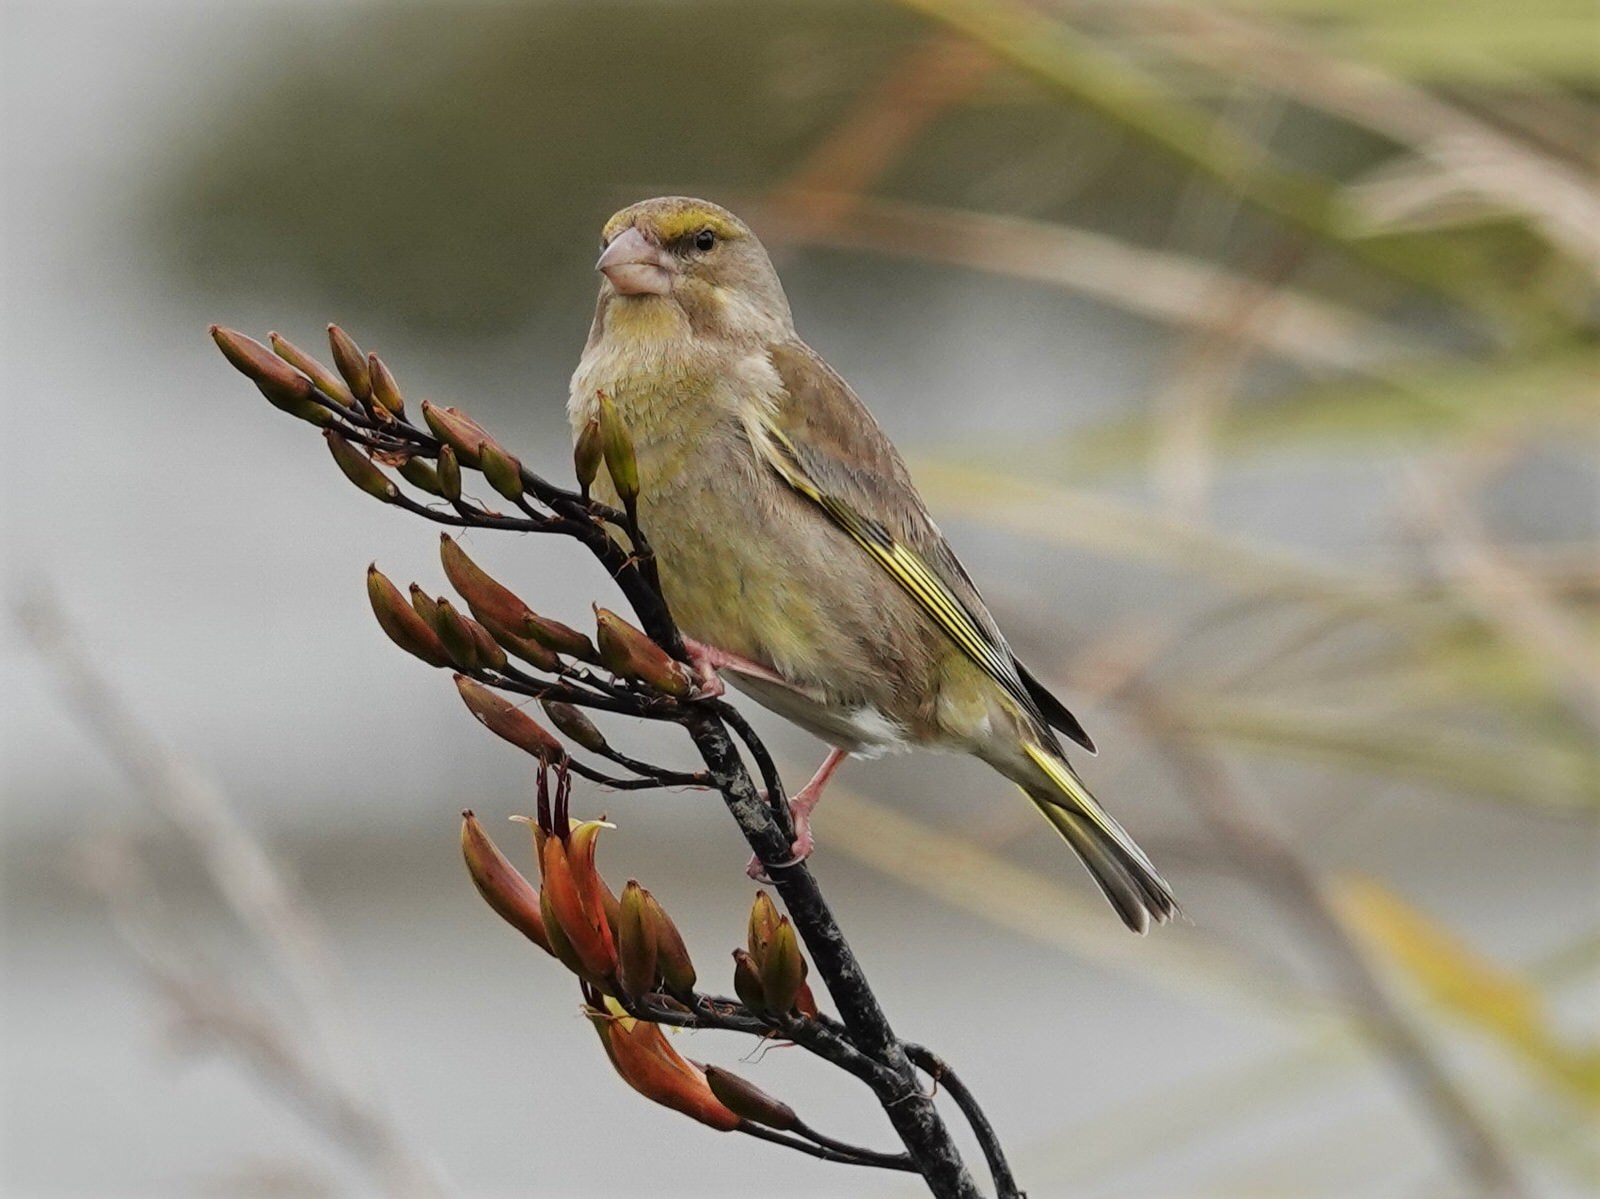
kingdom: Plantae
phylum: Tracheophyta
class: Liliopsida
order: Poales
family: Poaceae
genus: Chloris
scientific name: Chloris chloris
